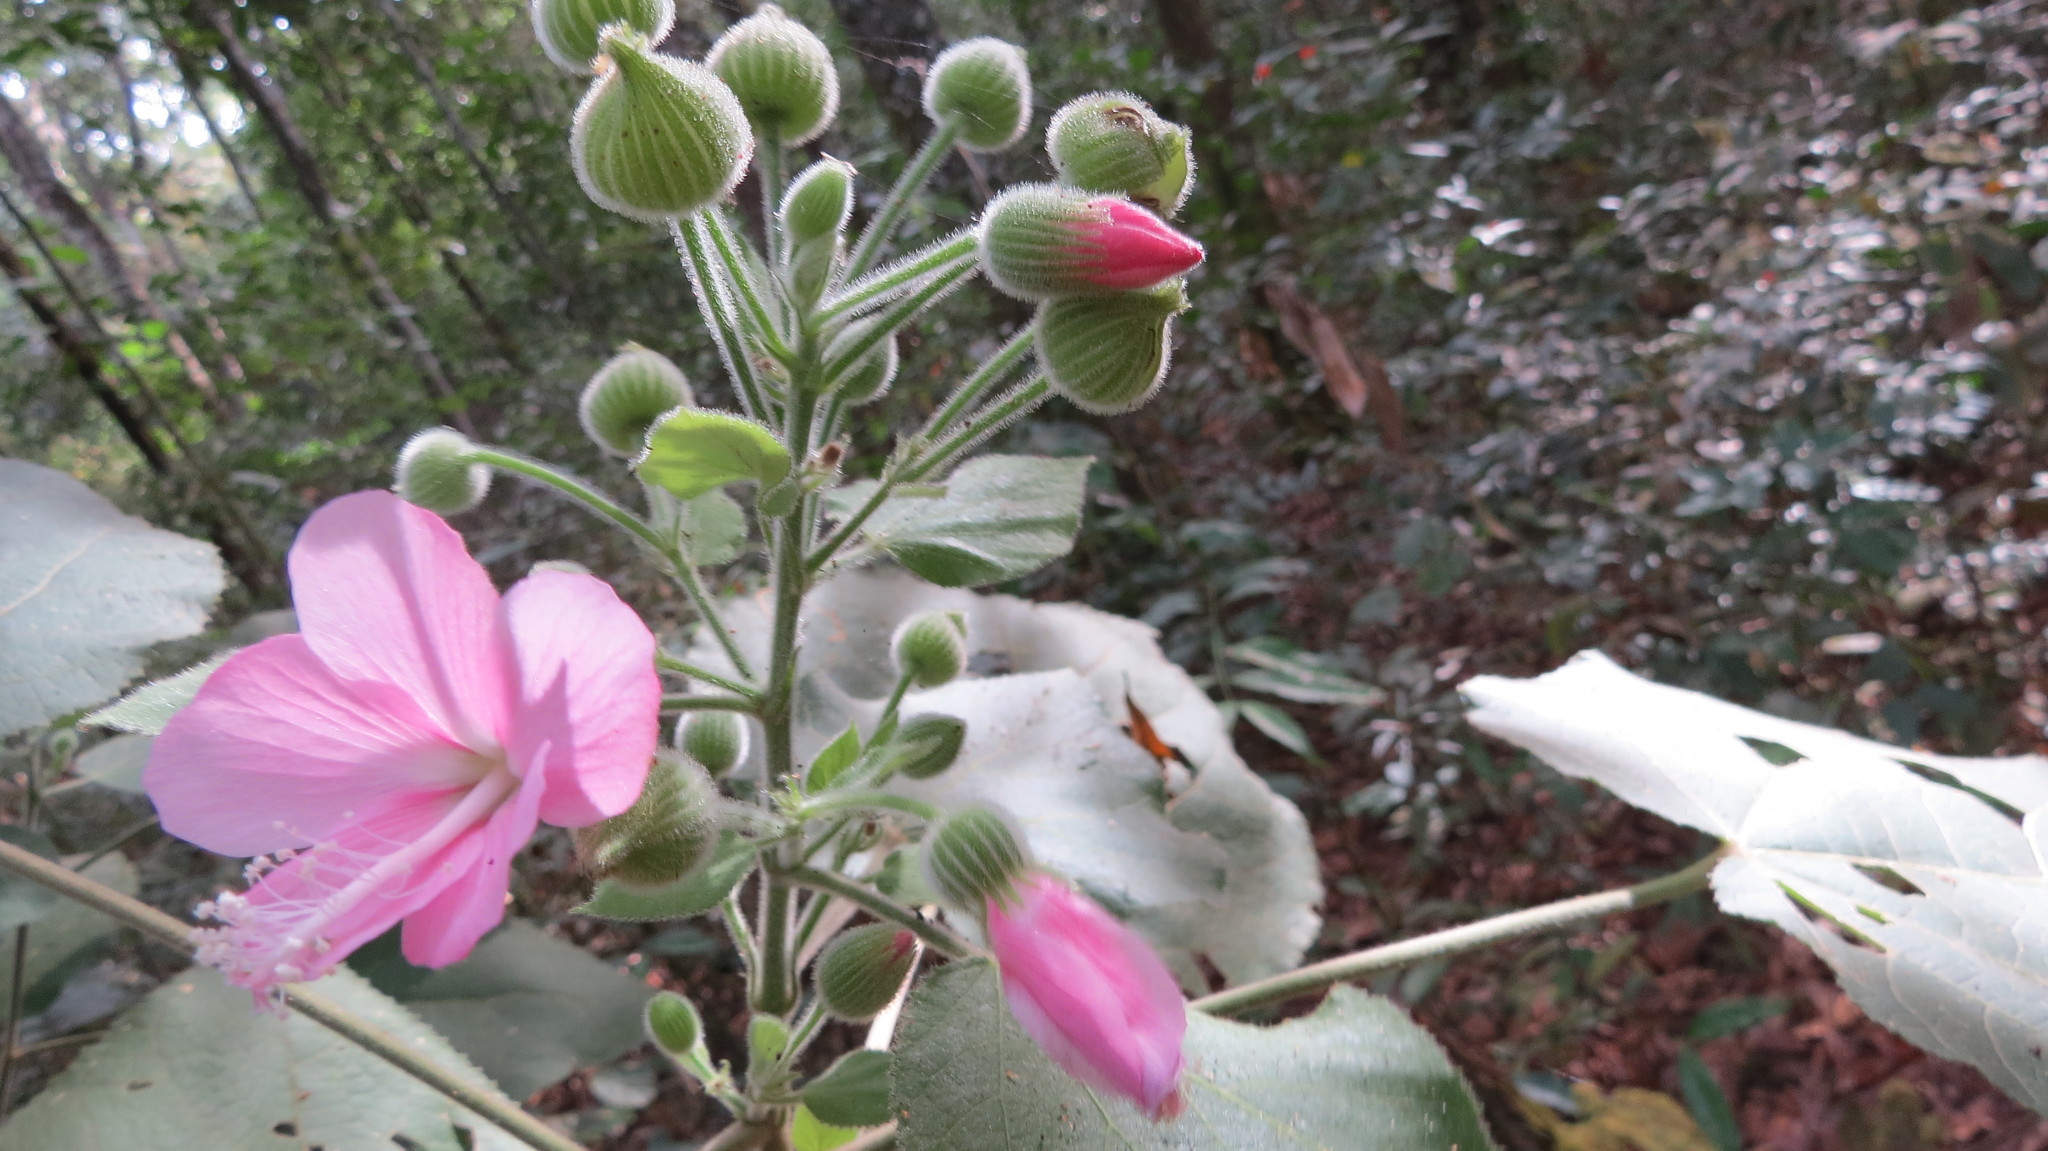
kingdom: Plantae
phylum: Tracheophyta
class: Magnoliopsida
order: Malvales
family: Malvaceae
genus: Pavonia
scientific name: Pavonia malacophylla
